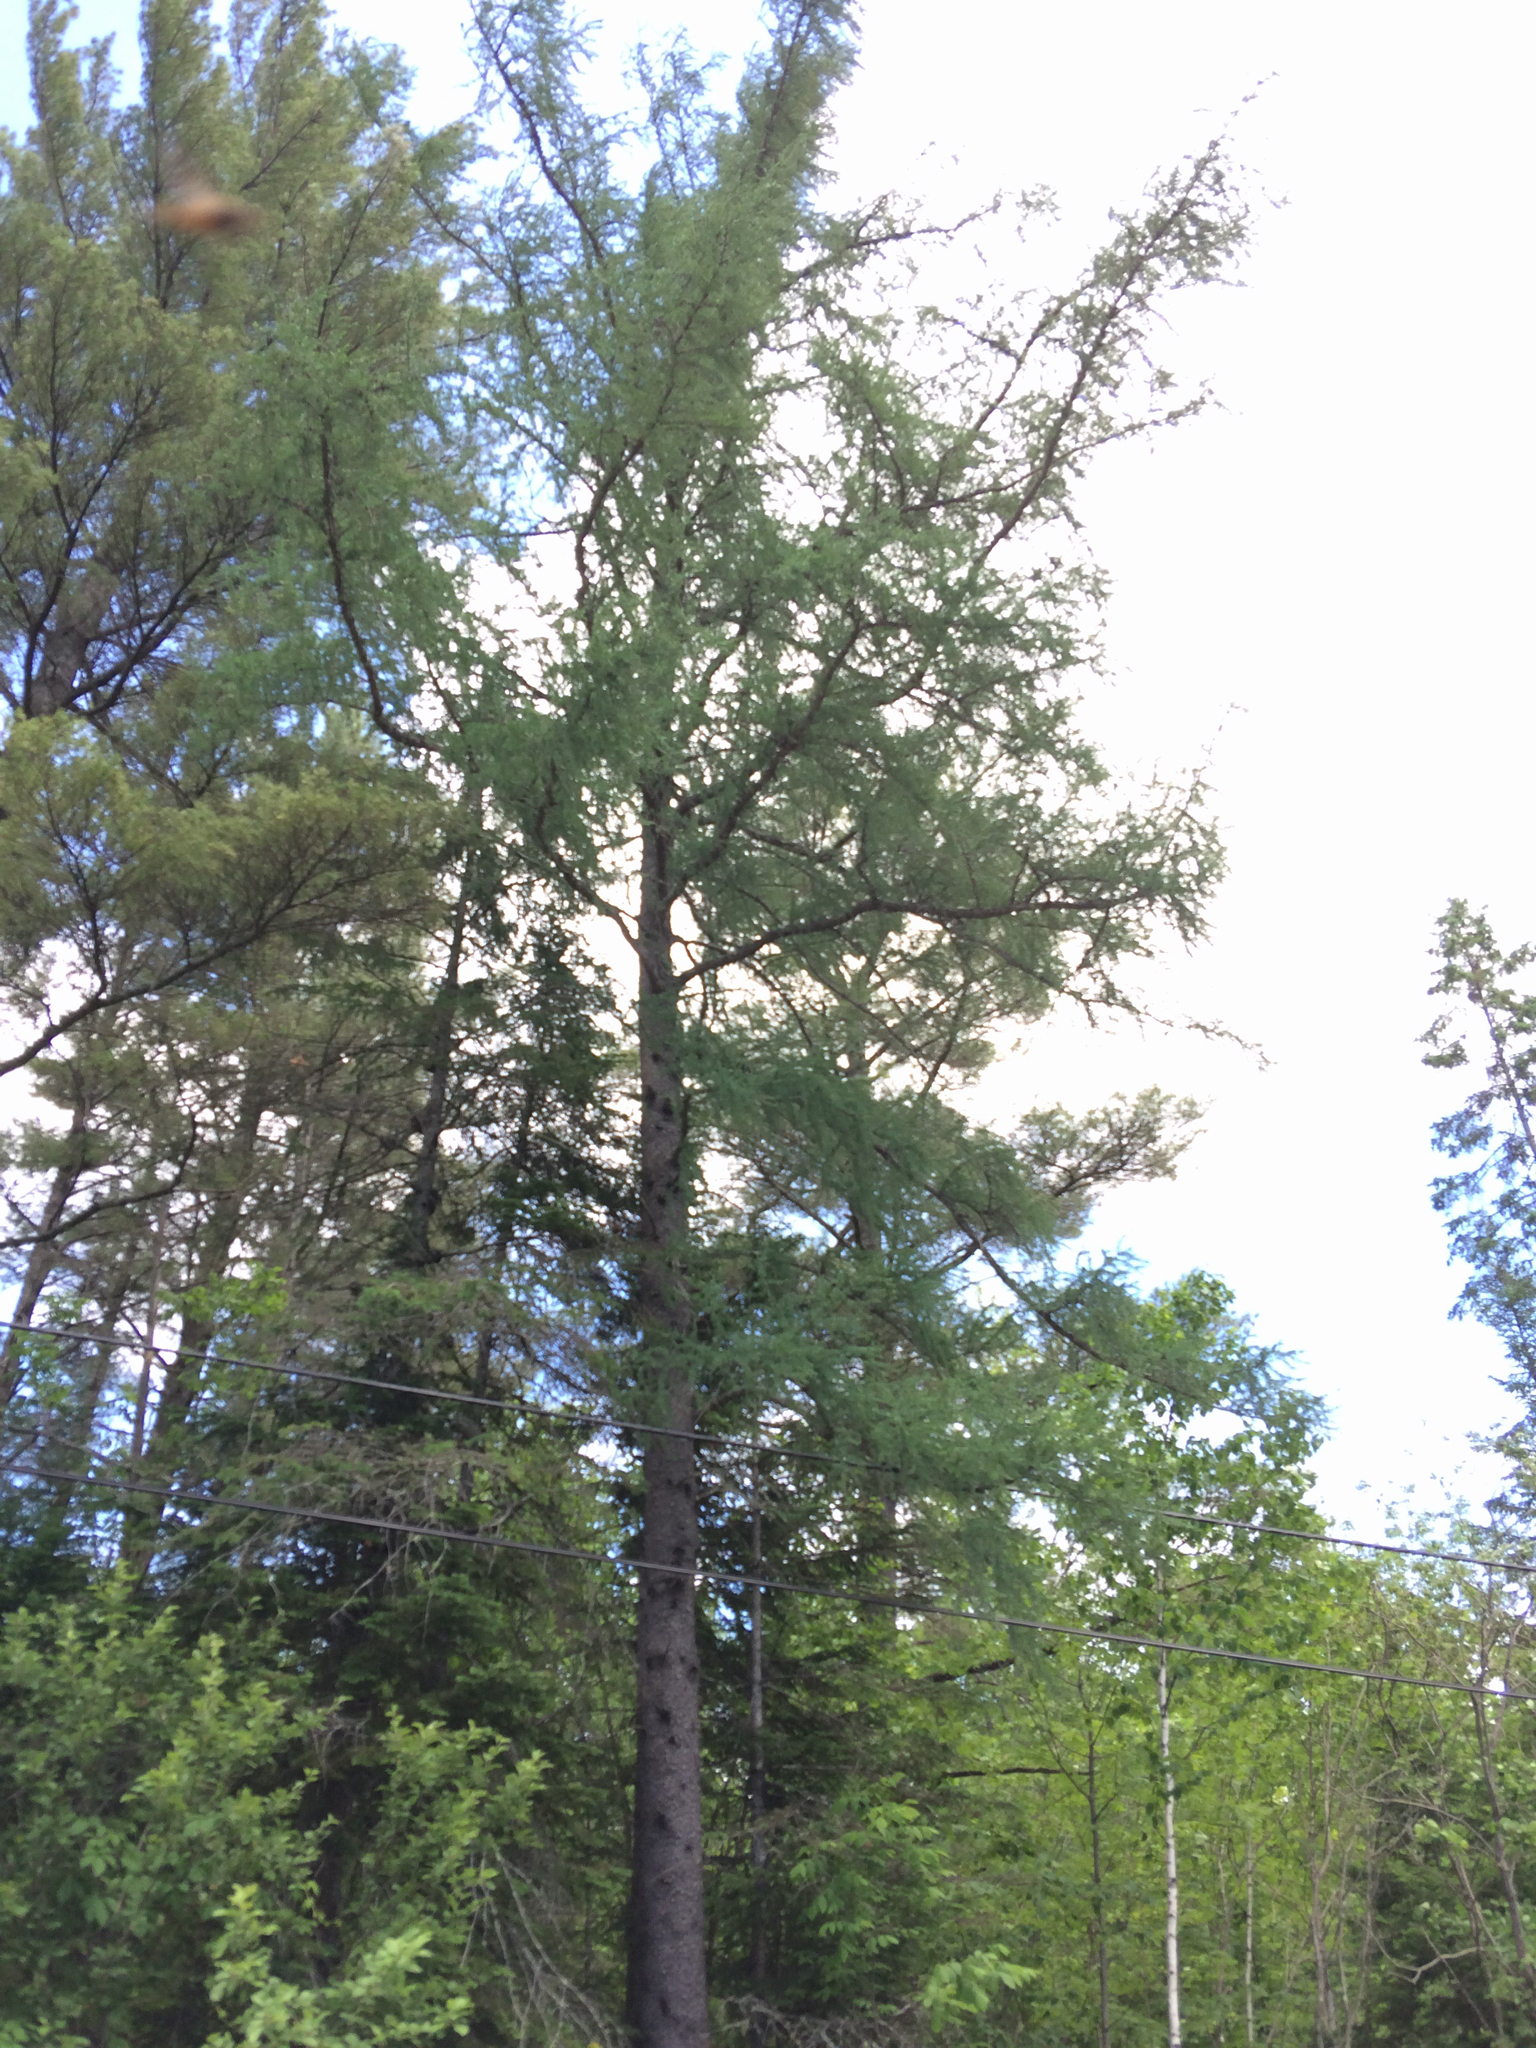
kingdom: Plantae
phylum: Tracheophyta
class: Pinopsida
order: Pinales
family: Pinaceae
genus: Larix
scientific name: Larix laricina
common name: American larch
